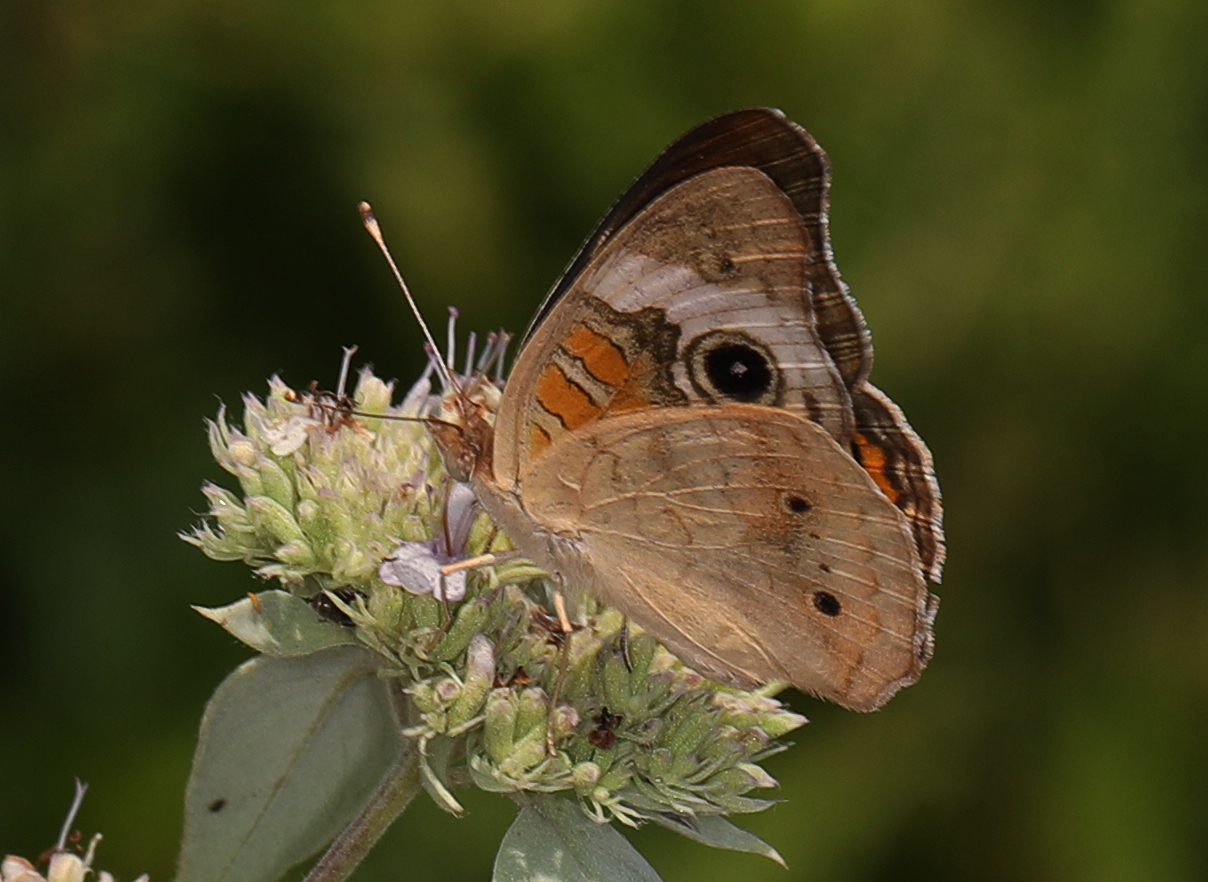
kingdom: Animalia
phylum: Arthropoda
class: Insecta
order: Lepidoptera
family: Nymphalidae
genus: Junonia
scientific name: Junonia coenia
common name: Common buckeye
